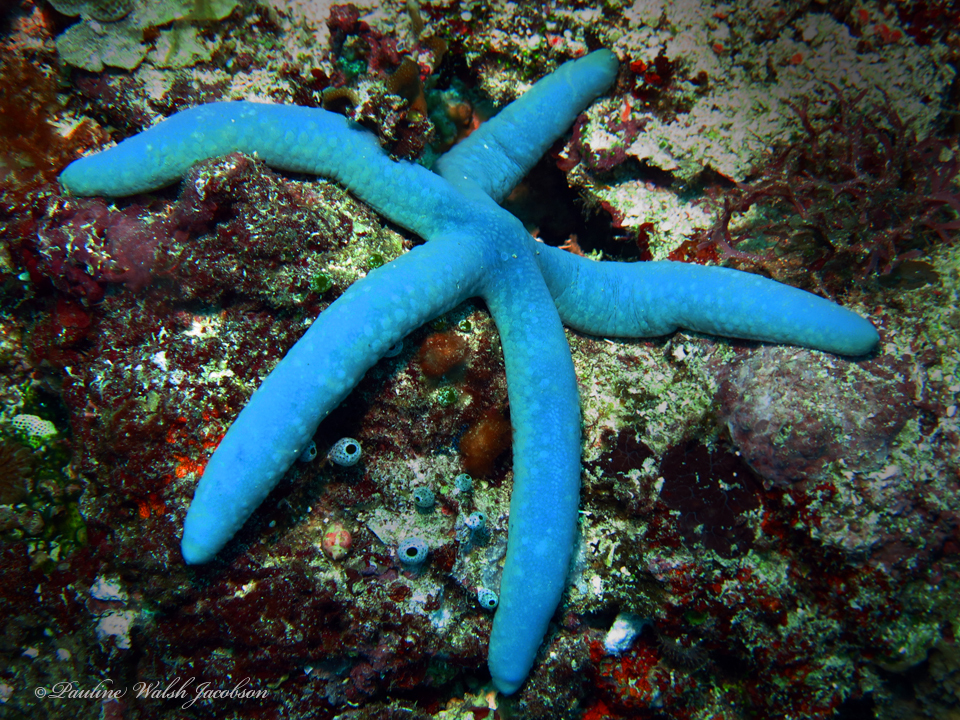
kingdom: Animalia
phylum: Echinodermata
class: Asteroidea
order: Valvatida
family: Ophidiasteridae
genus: Linckia
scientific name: Linckia laevigata
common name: Azure sea star
